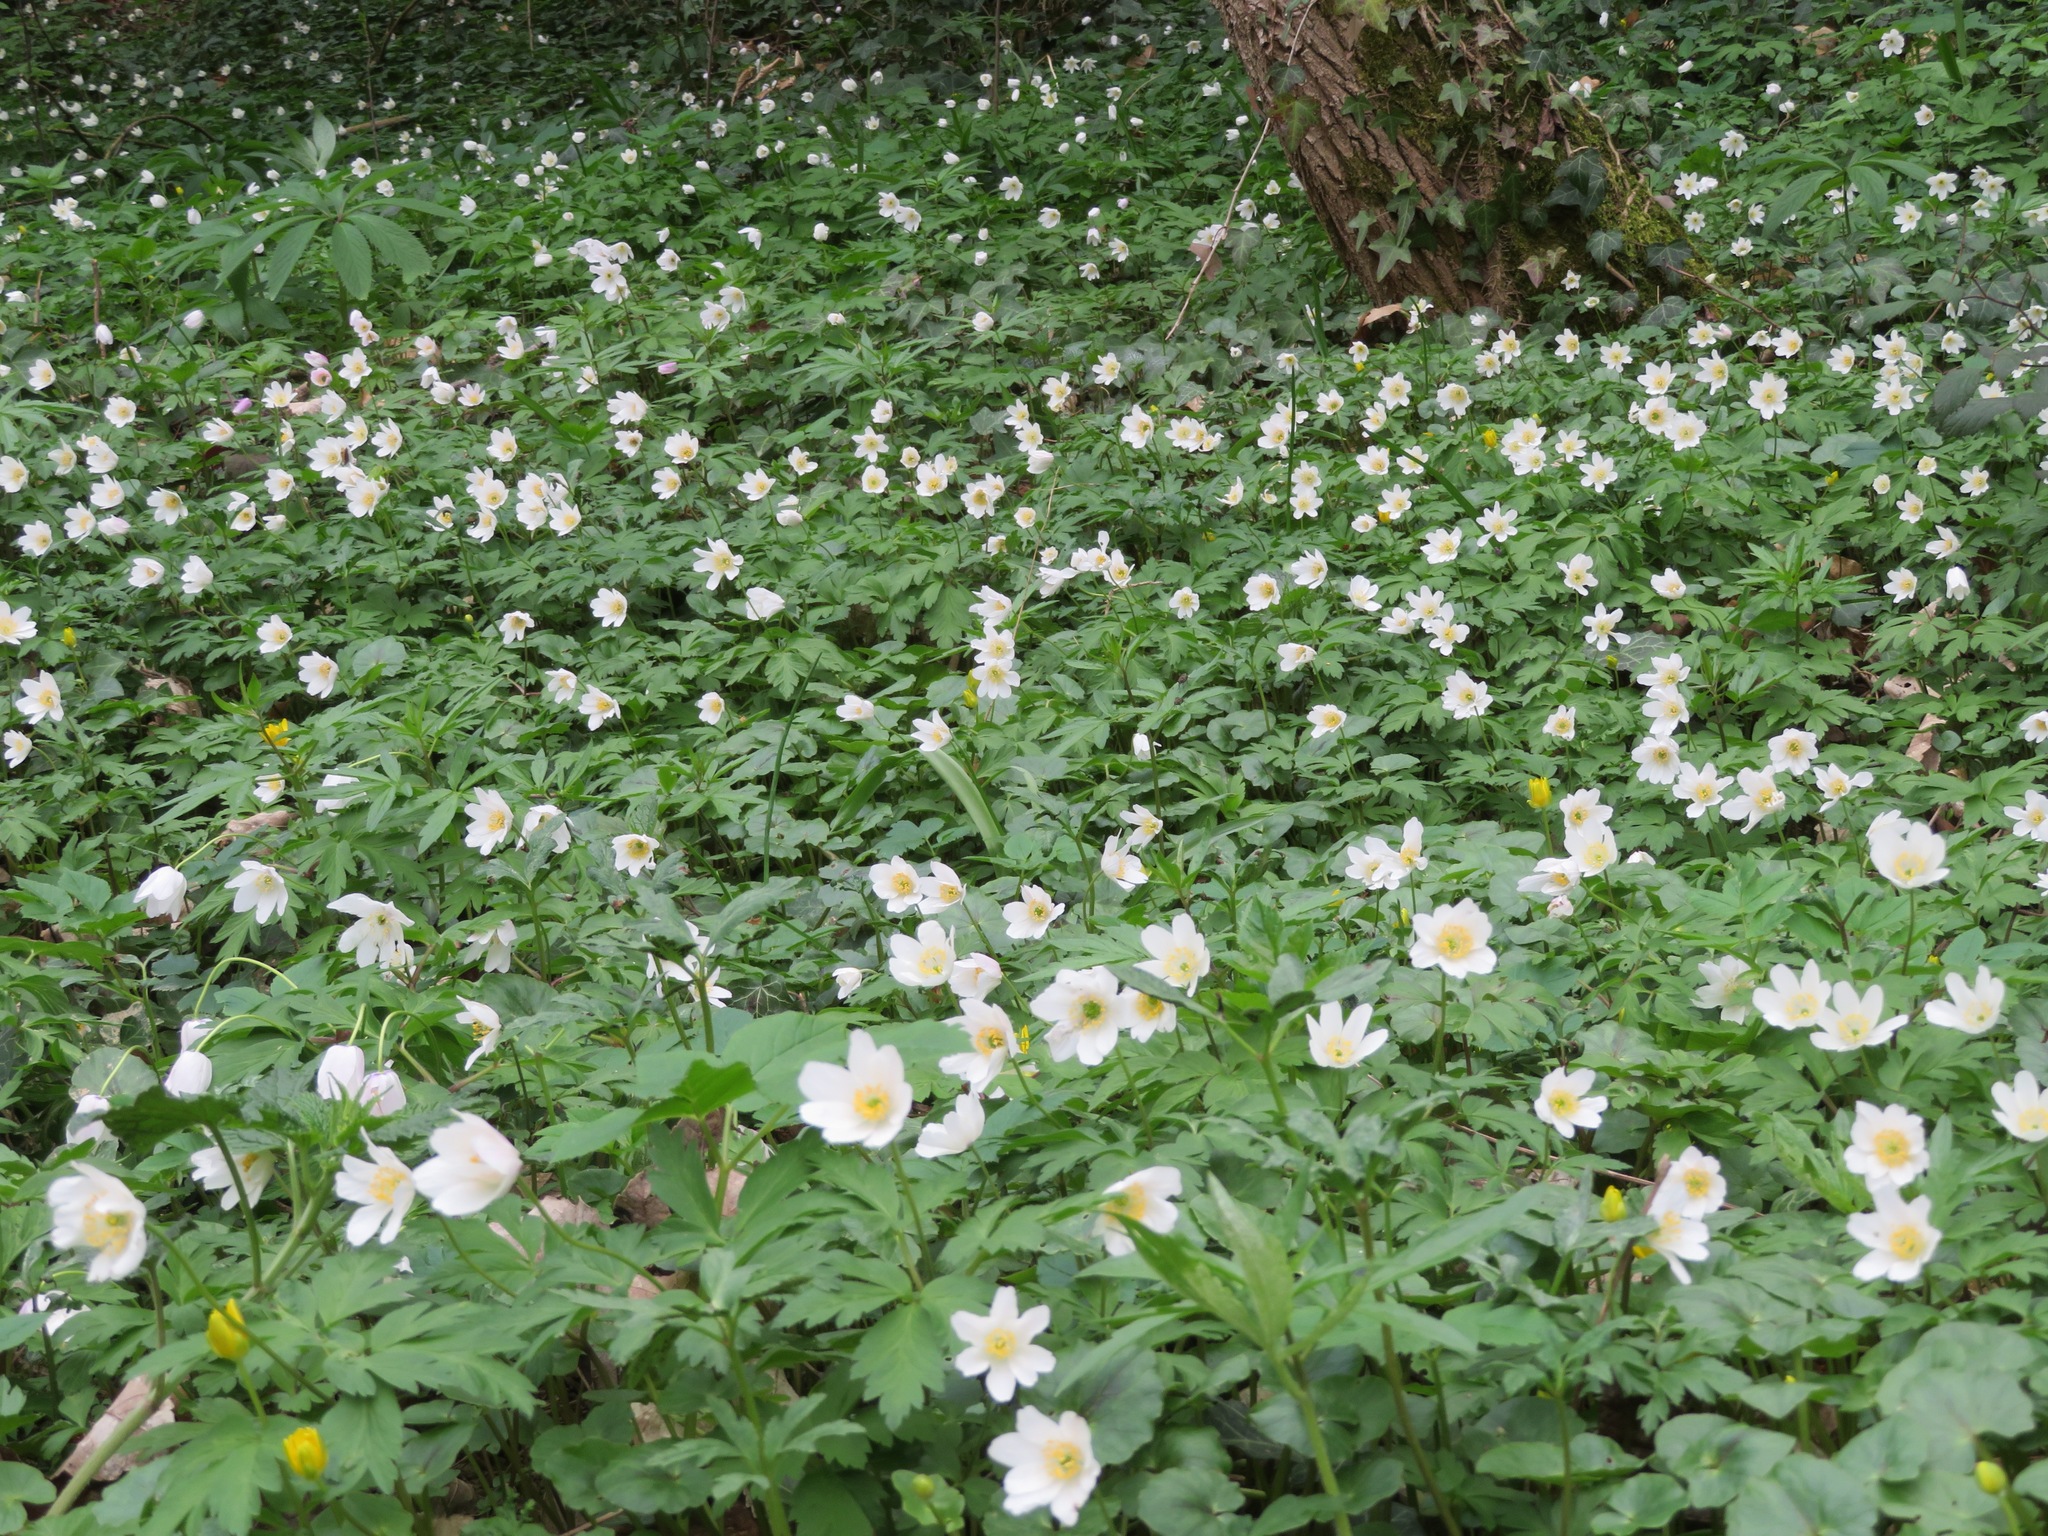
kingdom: Plantae
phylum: Tracheophyta
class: Magnoliopsida
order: Ranunculales
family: Ranunculaceae
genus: Anemone
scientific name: Anemone nemorosa
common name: Wood anemone
